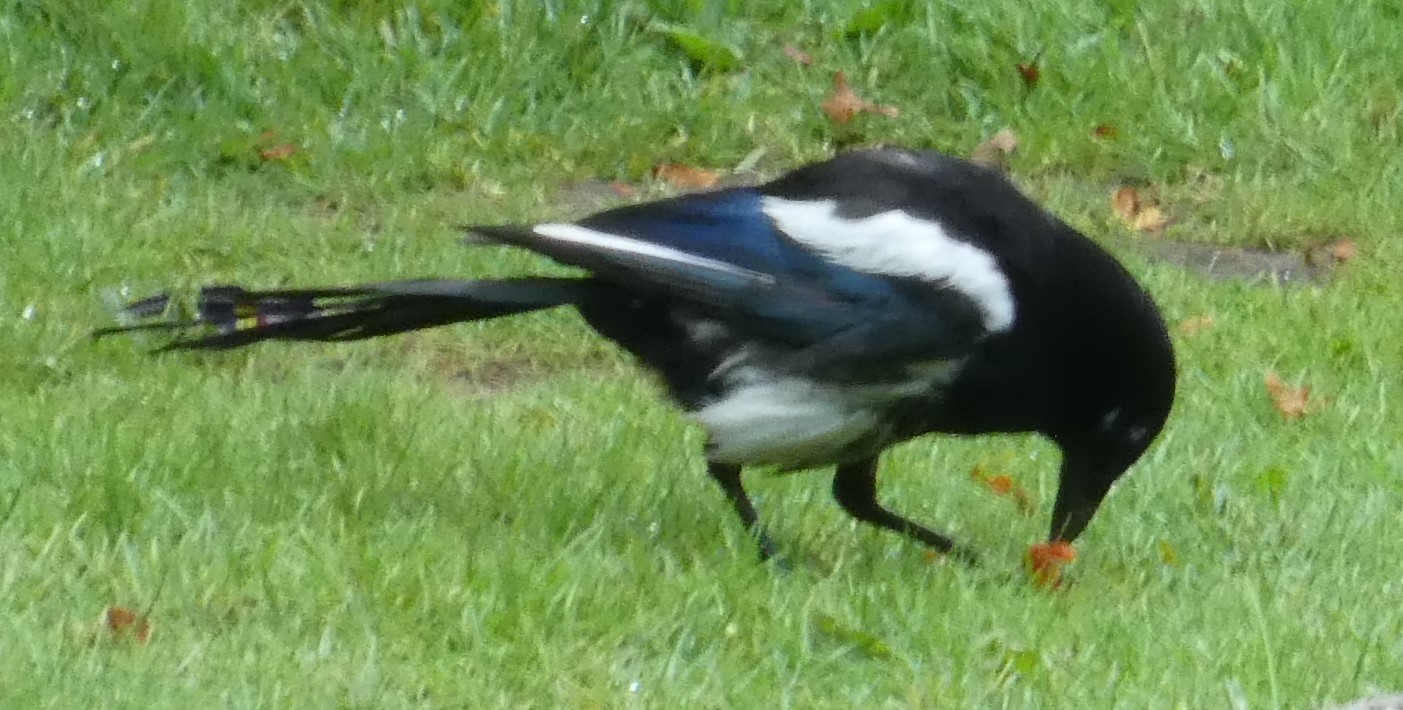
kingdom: Animalia
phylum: Chordata
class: Aves
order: Passeriformes
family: Corvidae
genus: Pica
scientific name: Pica pica
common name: Eurasian magpie
